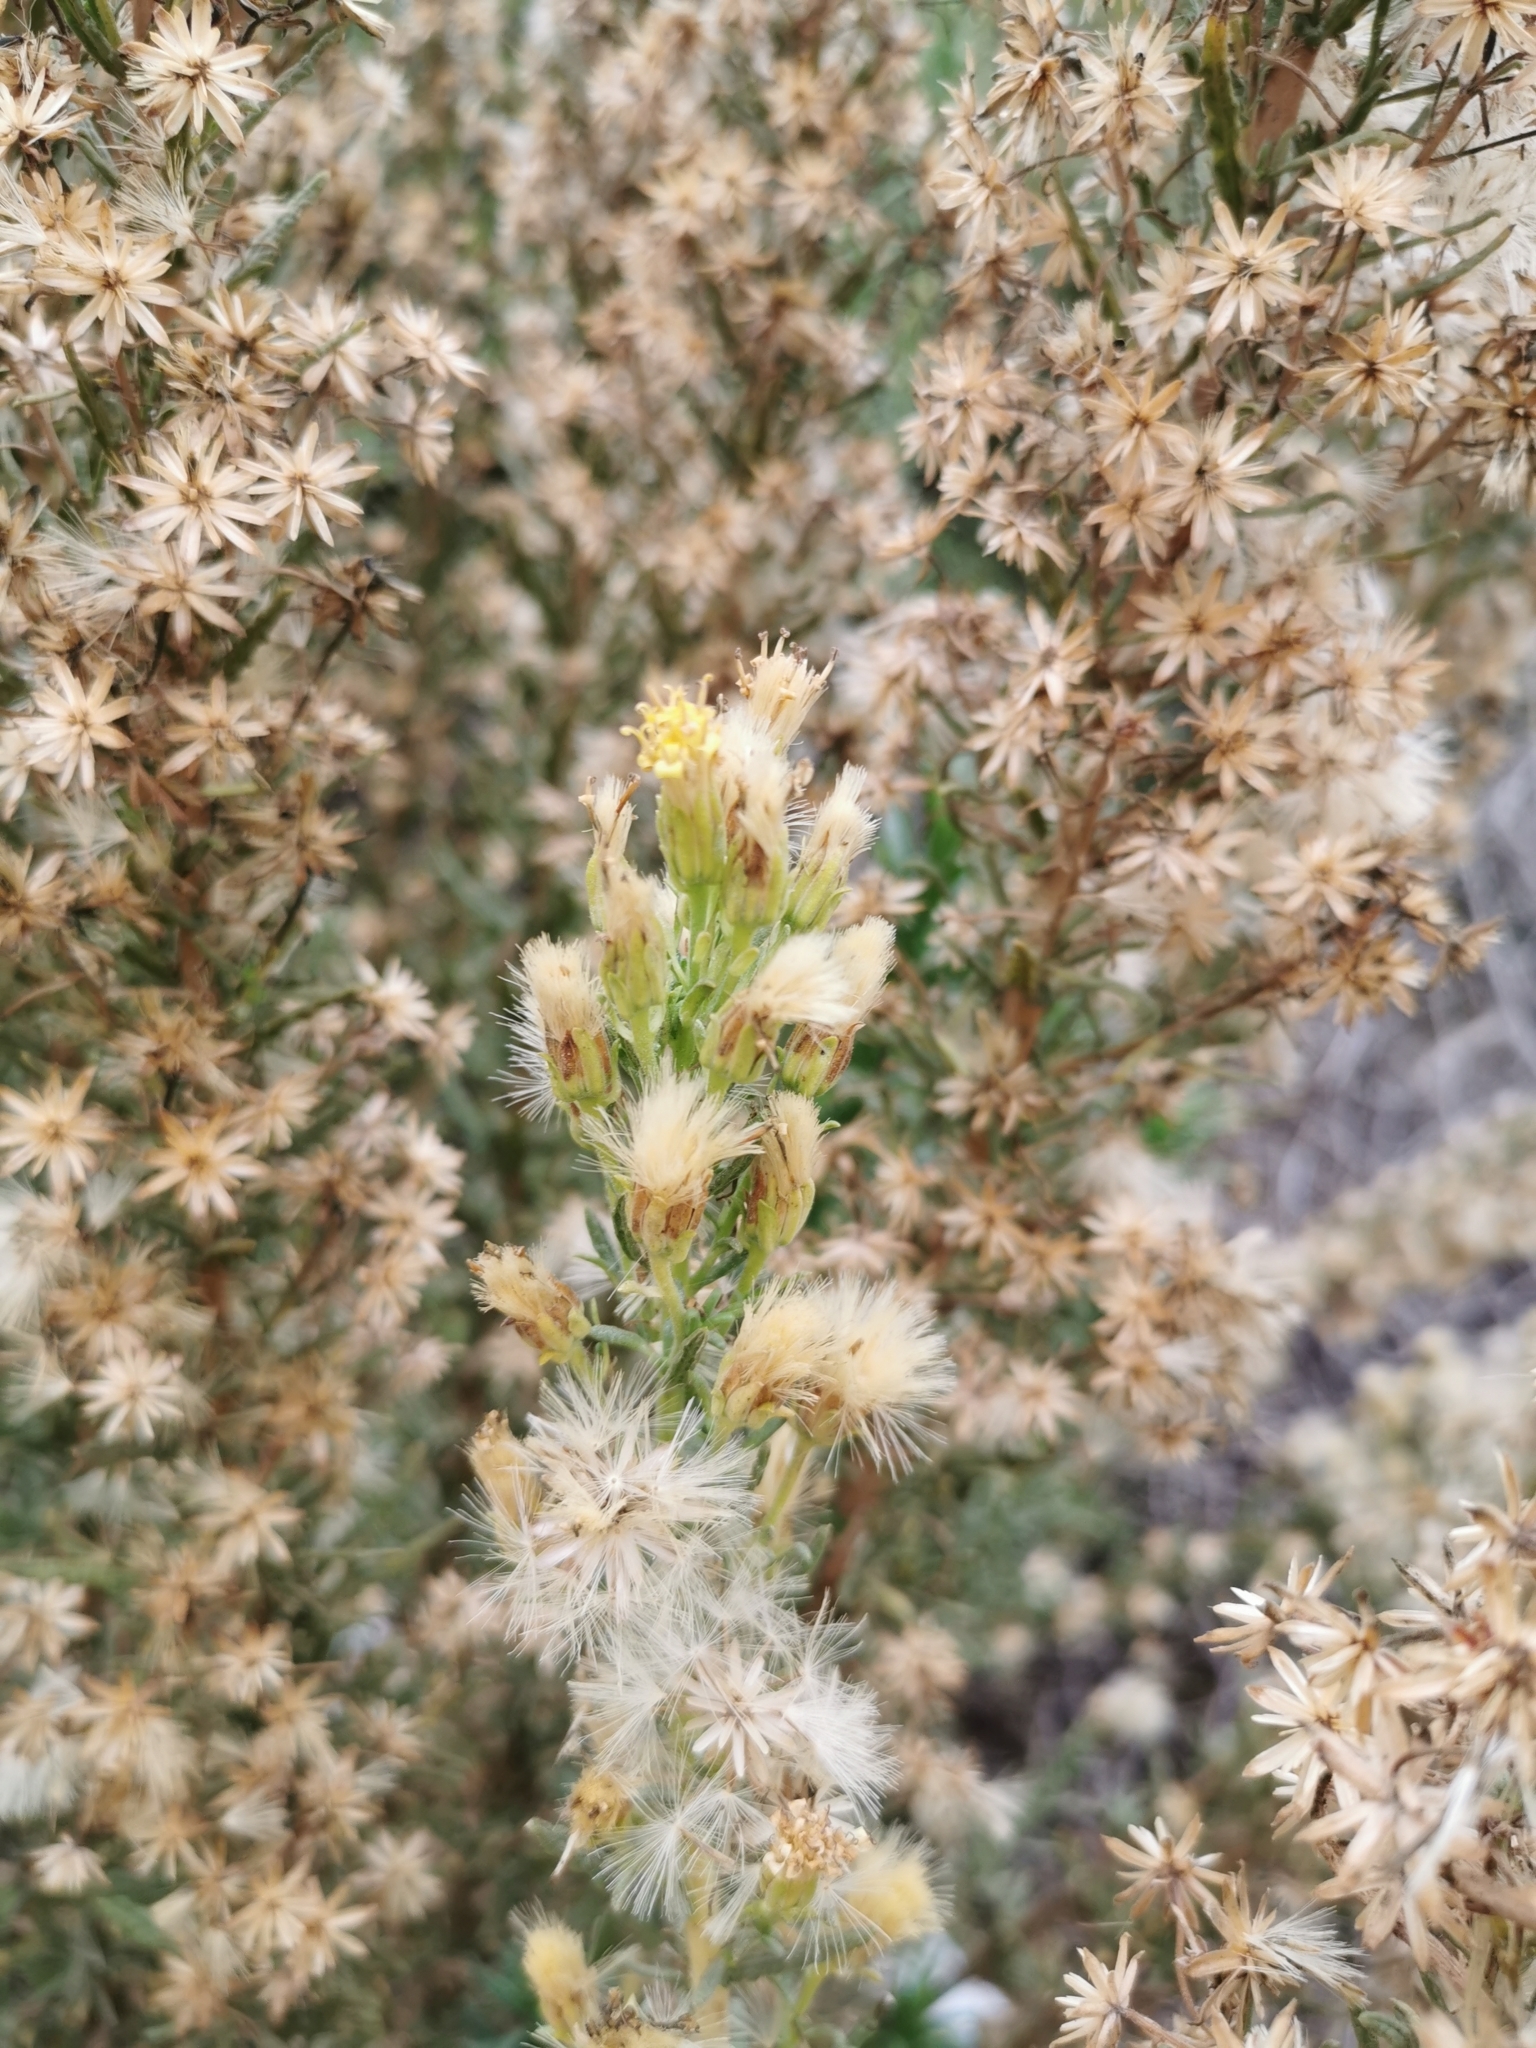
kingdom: Plantae
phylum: Tracheophyta
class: Magnoliopsida
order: Asterales
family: Asteraceae
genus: Jungia
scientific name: Jungia revoluta
